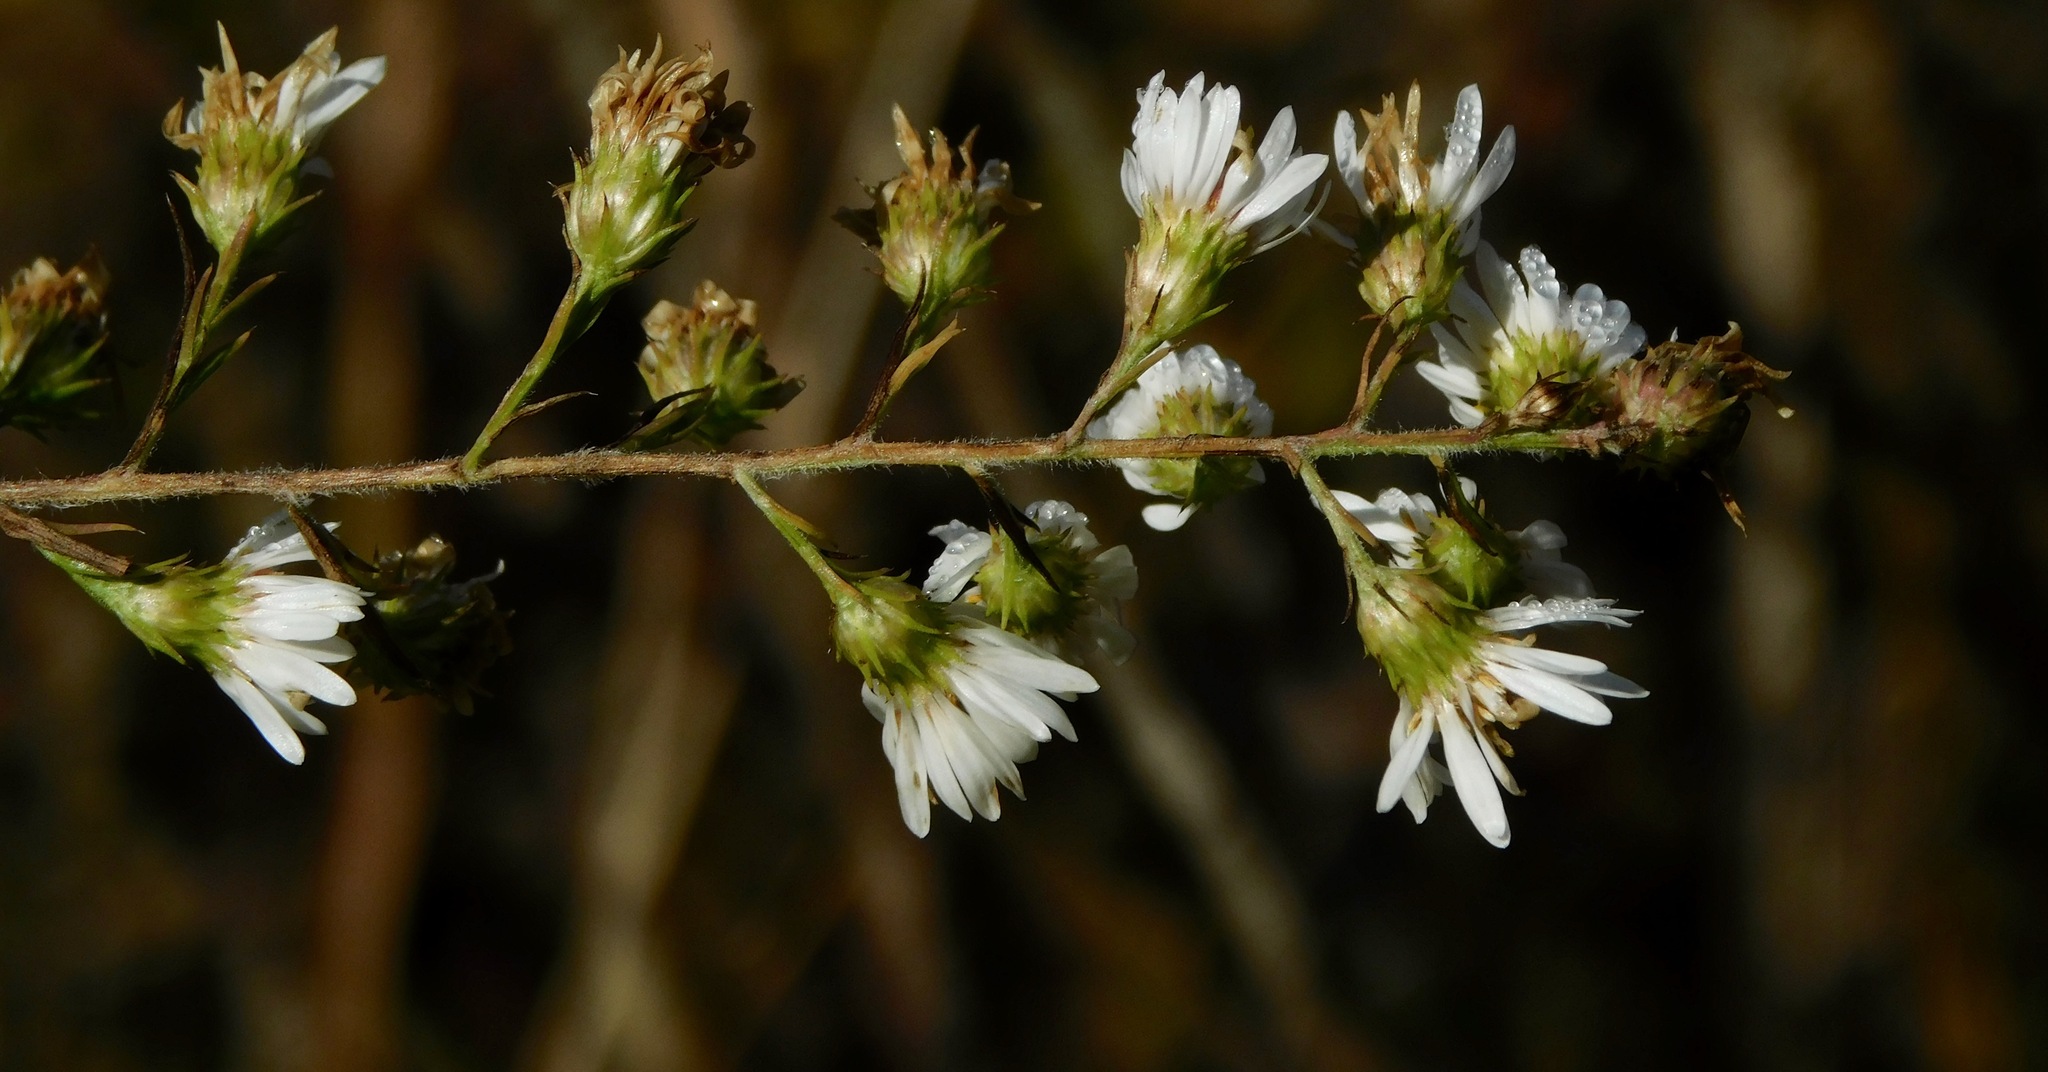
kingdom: Plantae
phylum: Tracheophyta
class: Magnoliopsida
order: Asterales
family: Asteraceae
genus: Symphyotrichum
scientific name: Symphyotrichum pilosum
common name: Awl aster
